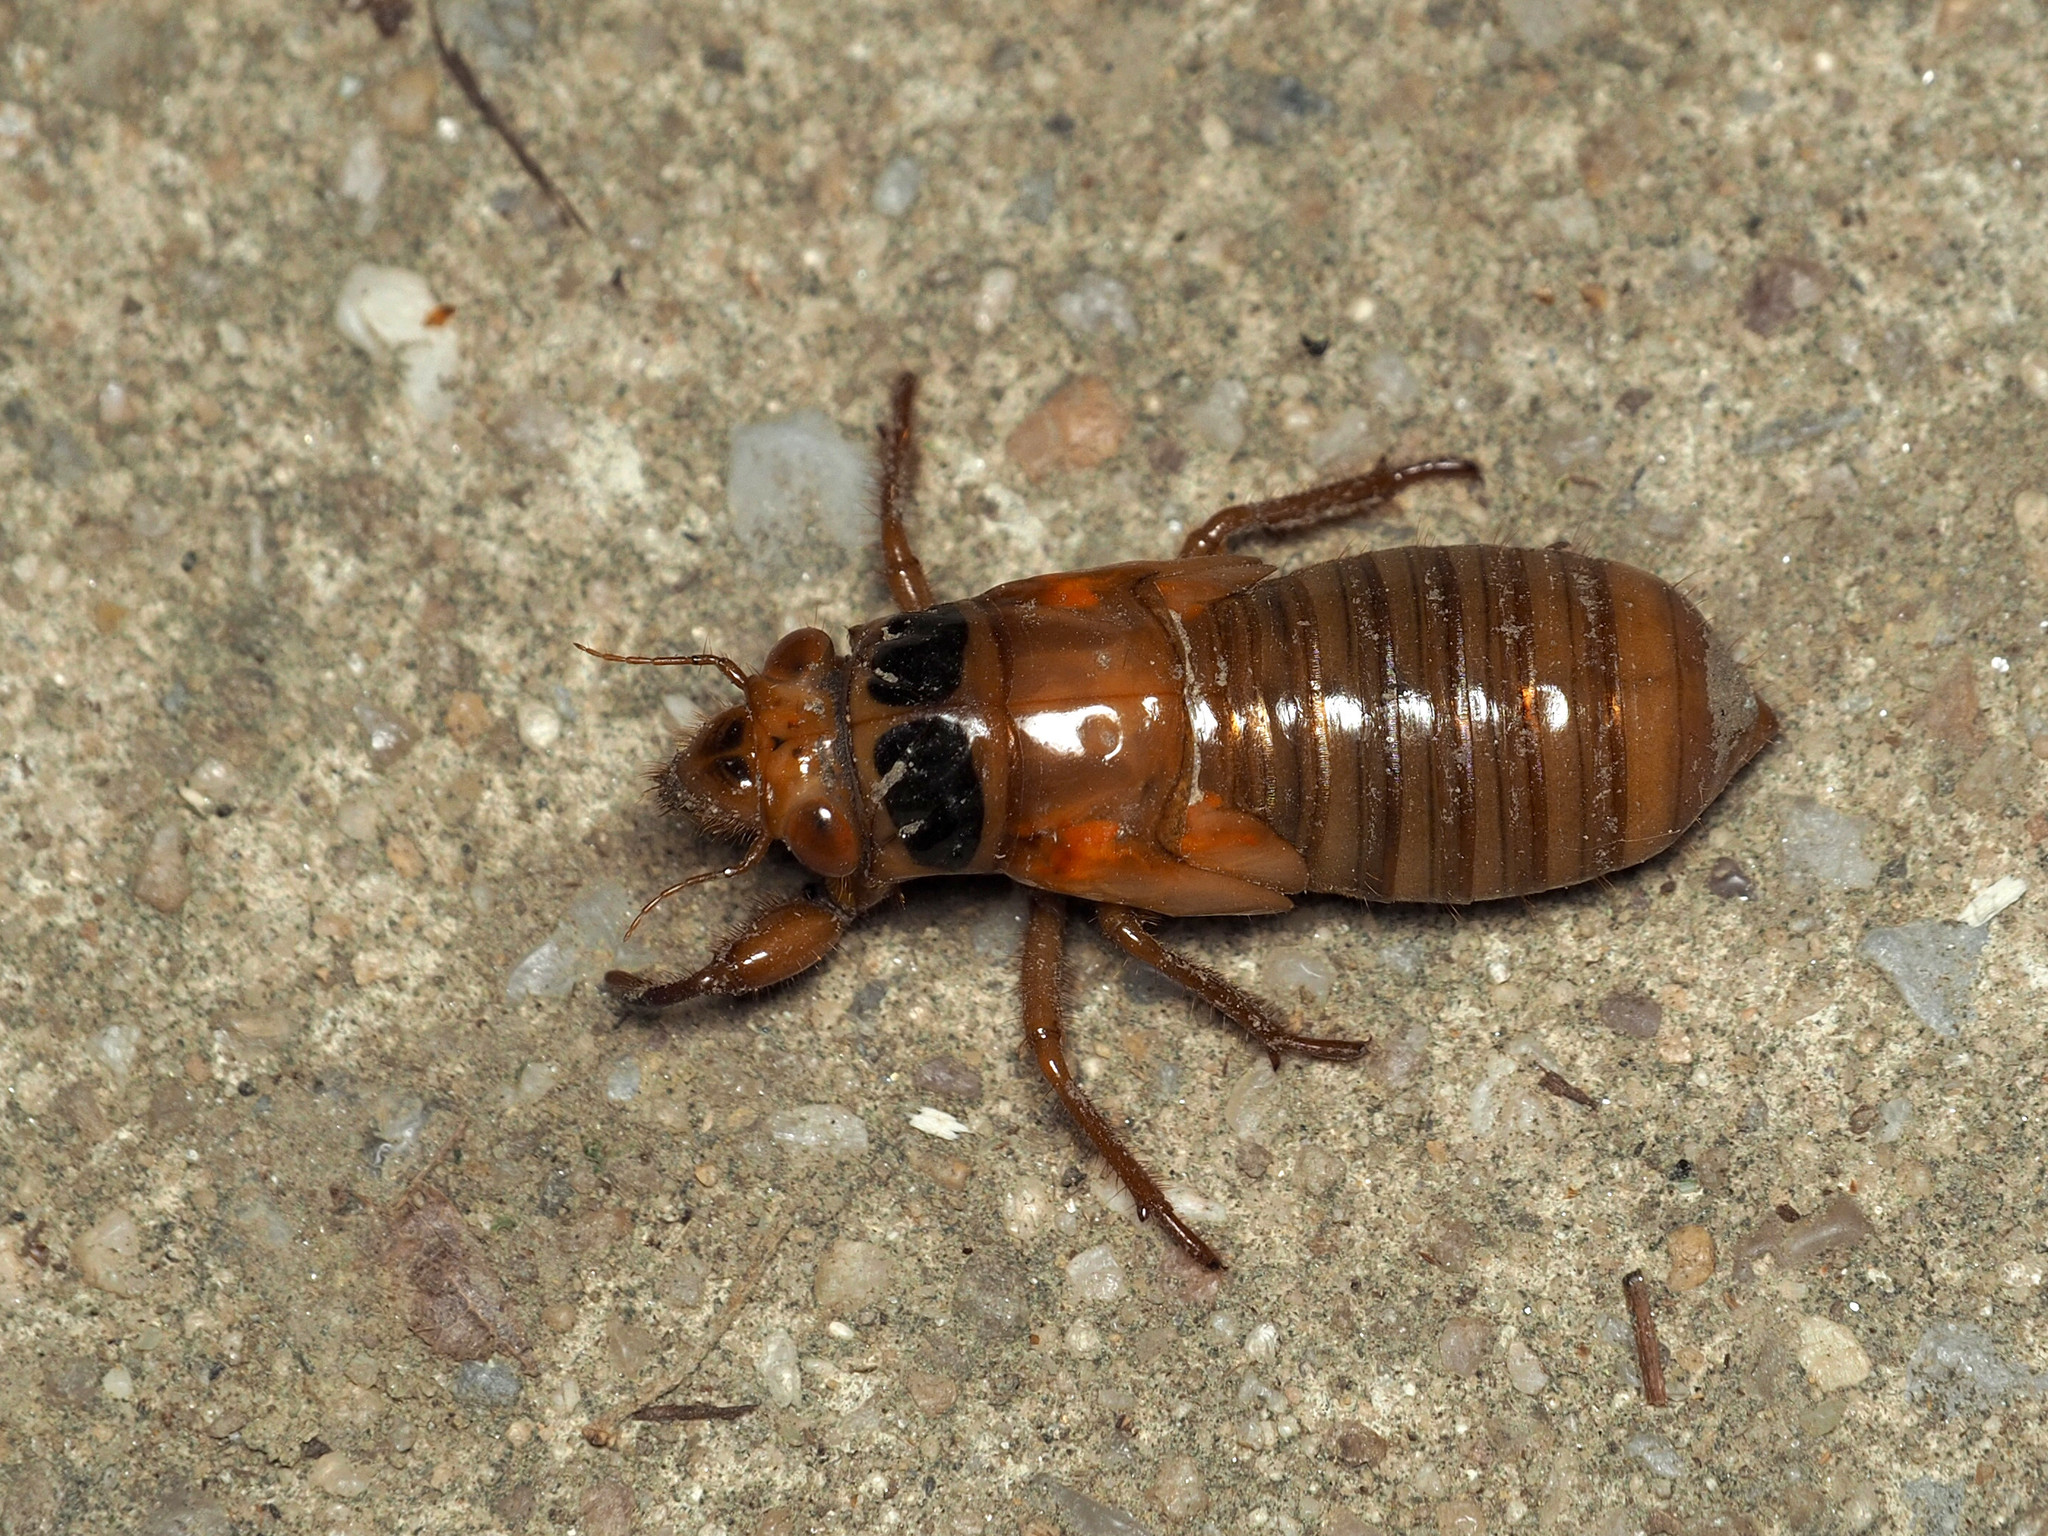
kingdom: Animalia
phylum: Arthropoda
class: Insecta
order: Hemiptera
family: Cicadidae
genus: Magicicada
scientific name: Magicicada
